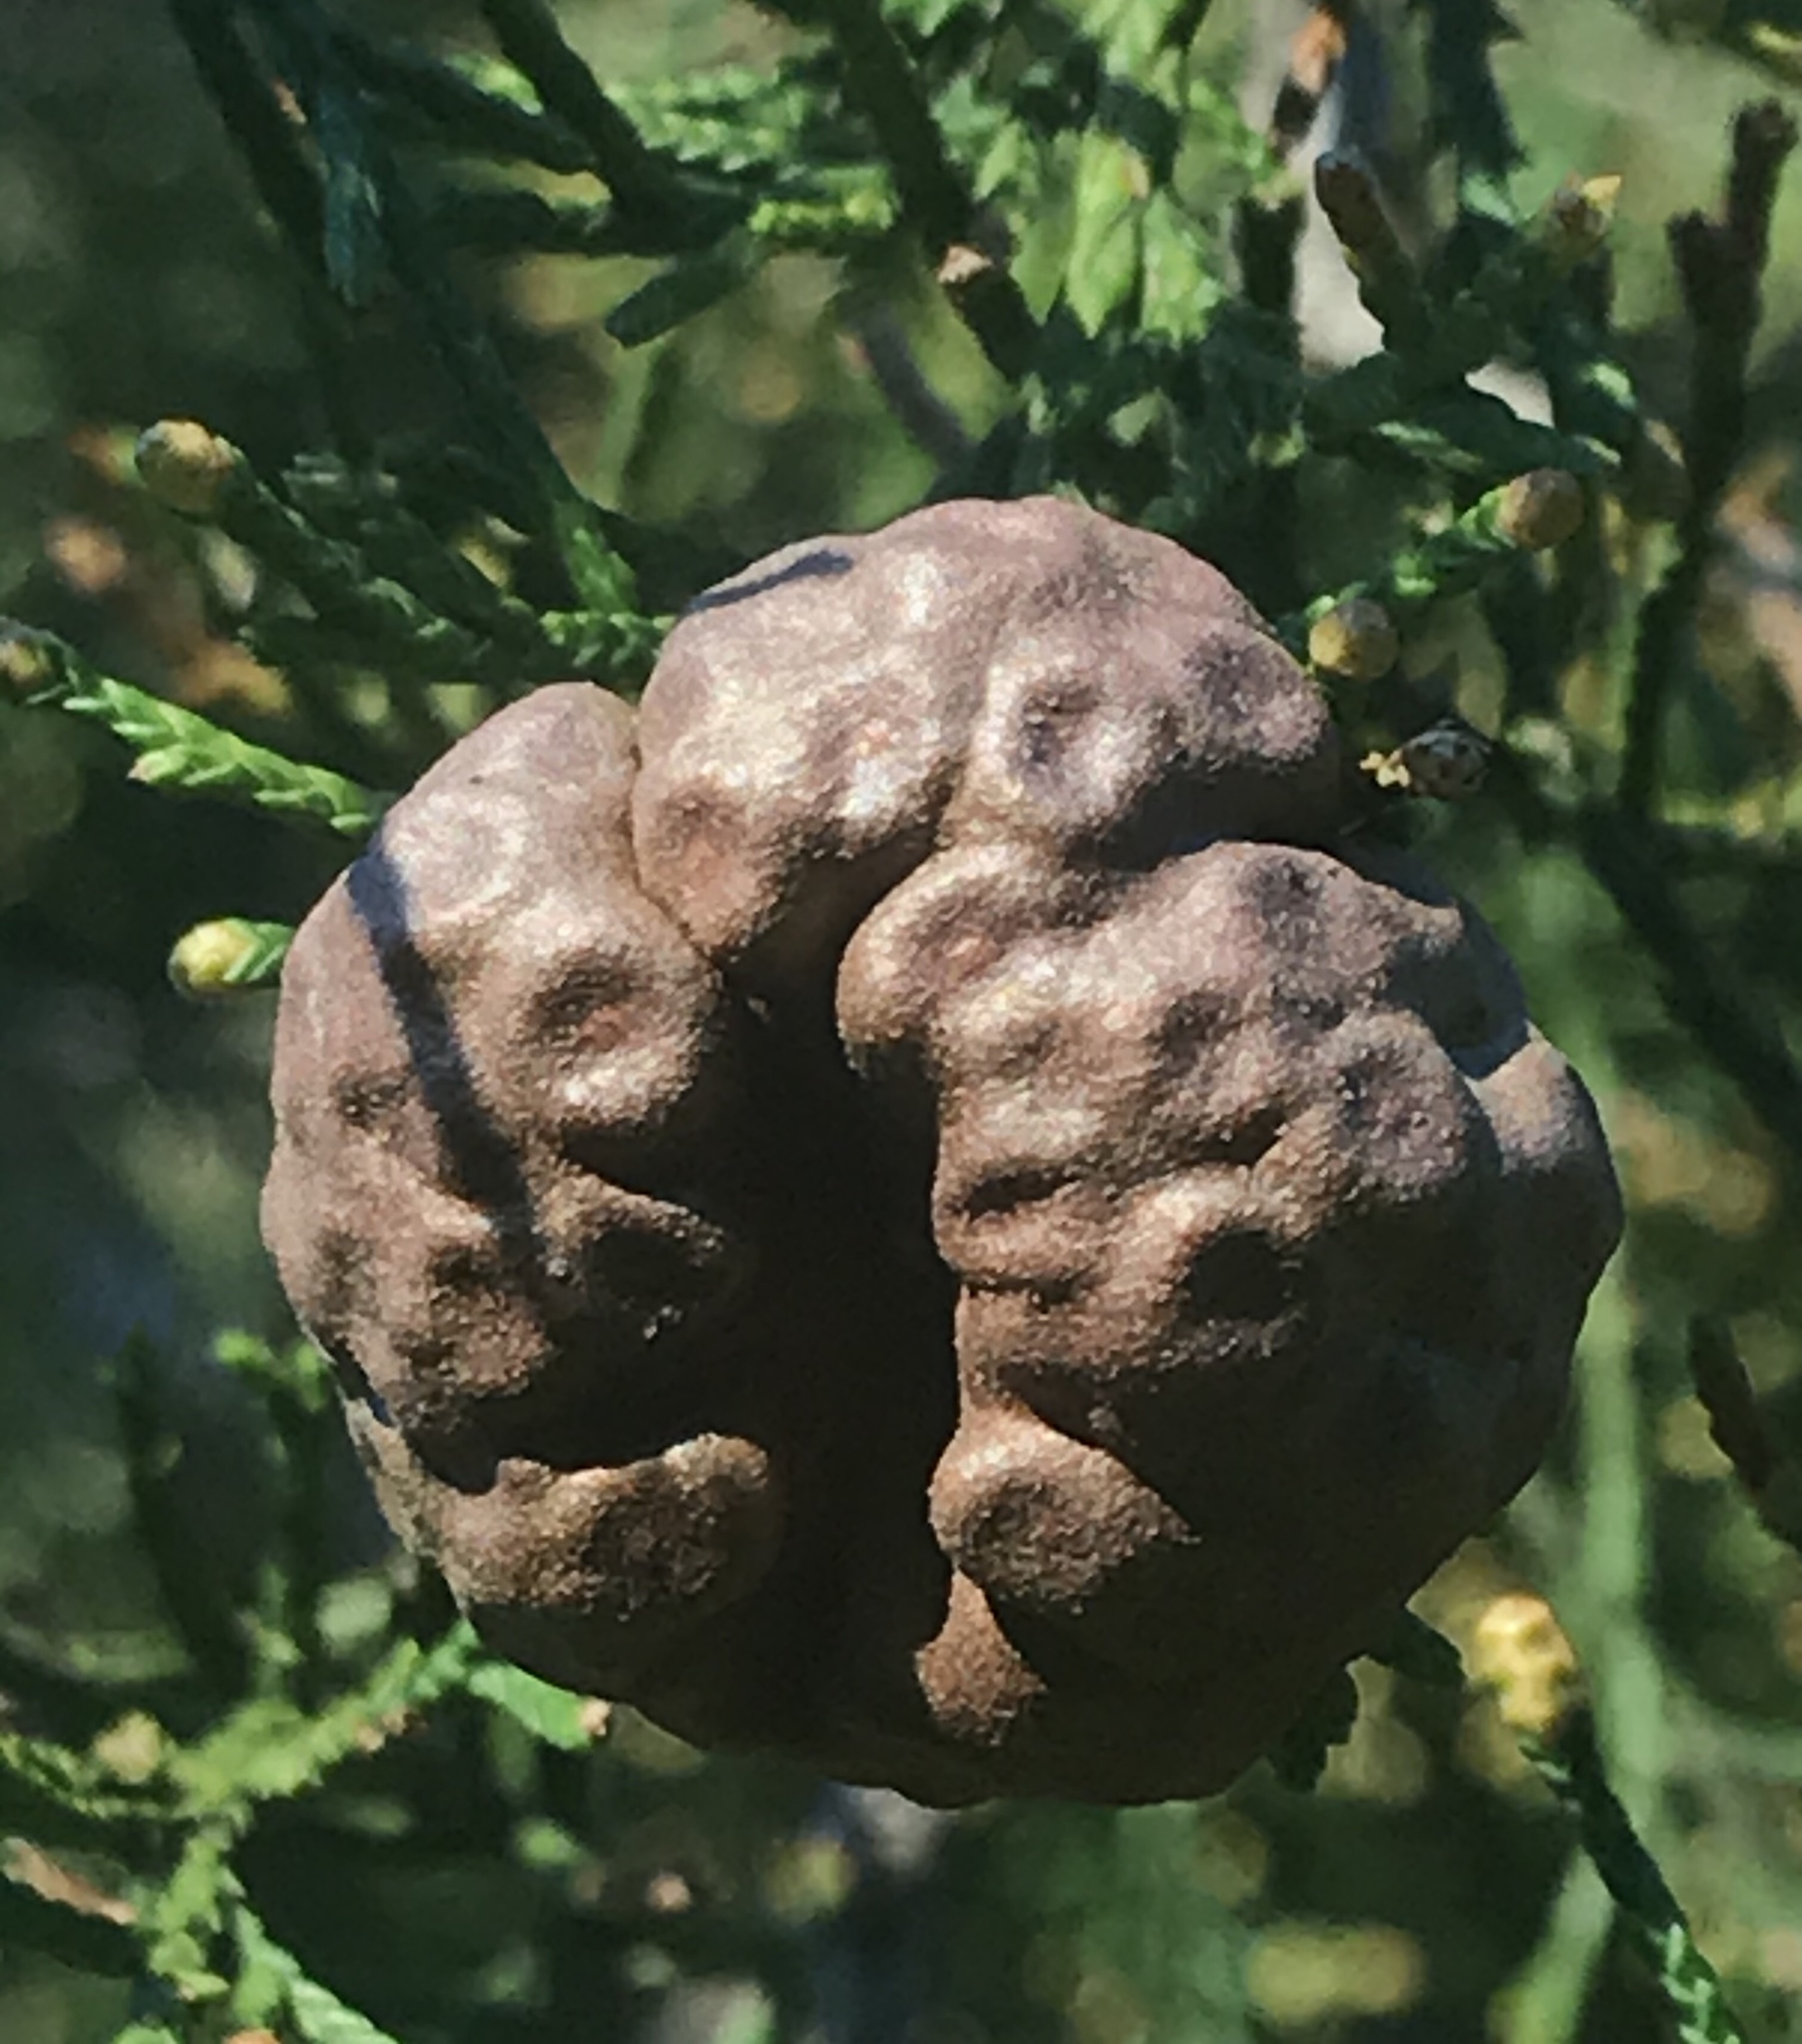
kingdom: Fungi
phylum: Basidiomycota
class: Pucciniomycetes
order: Pucciniales
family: Gymnosporangiaceae
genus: Gymnosporangium
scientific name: Gymnosporangium juniperi-virginianae
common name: Juniper-apple rust
